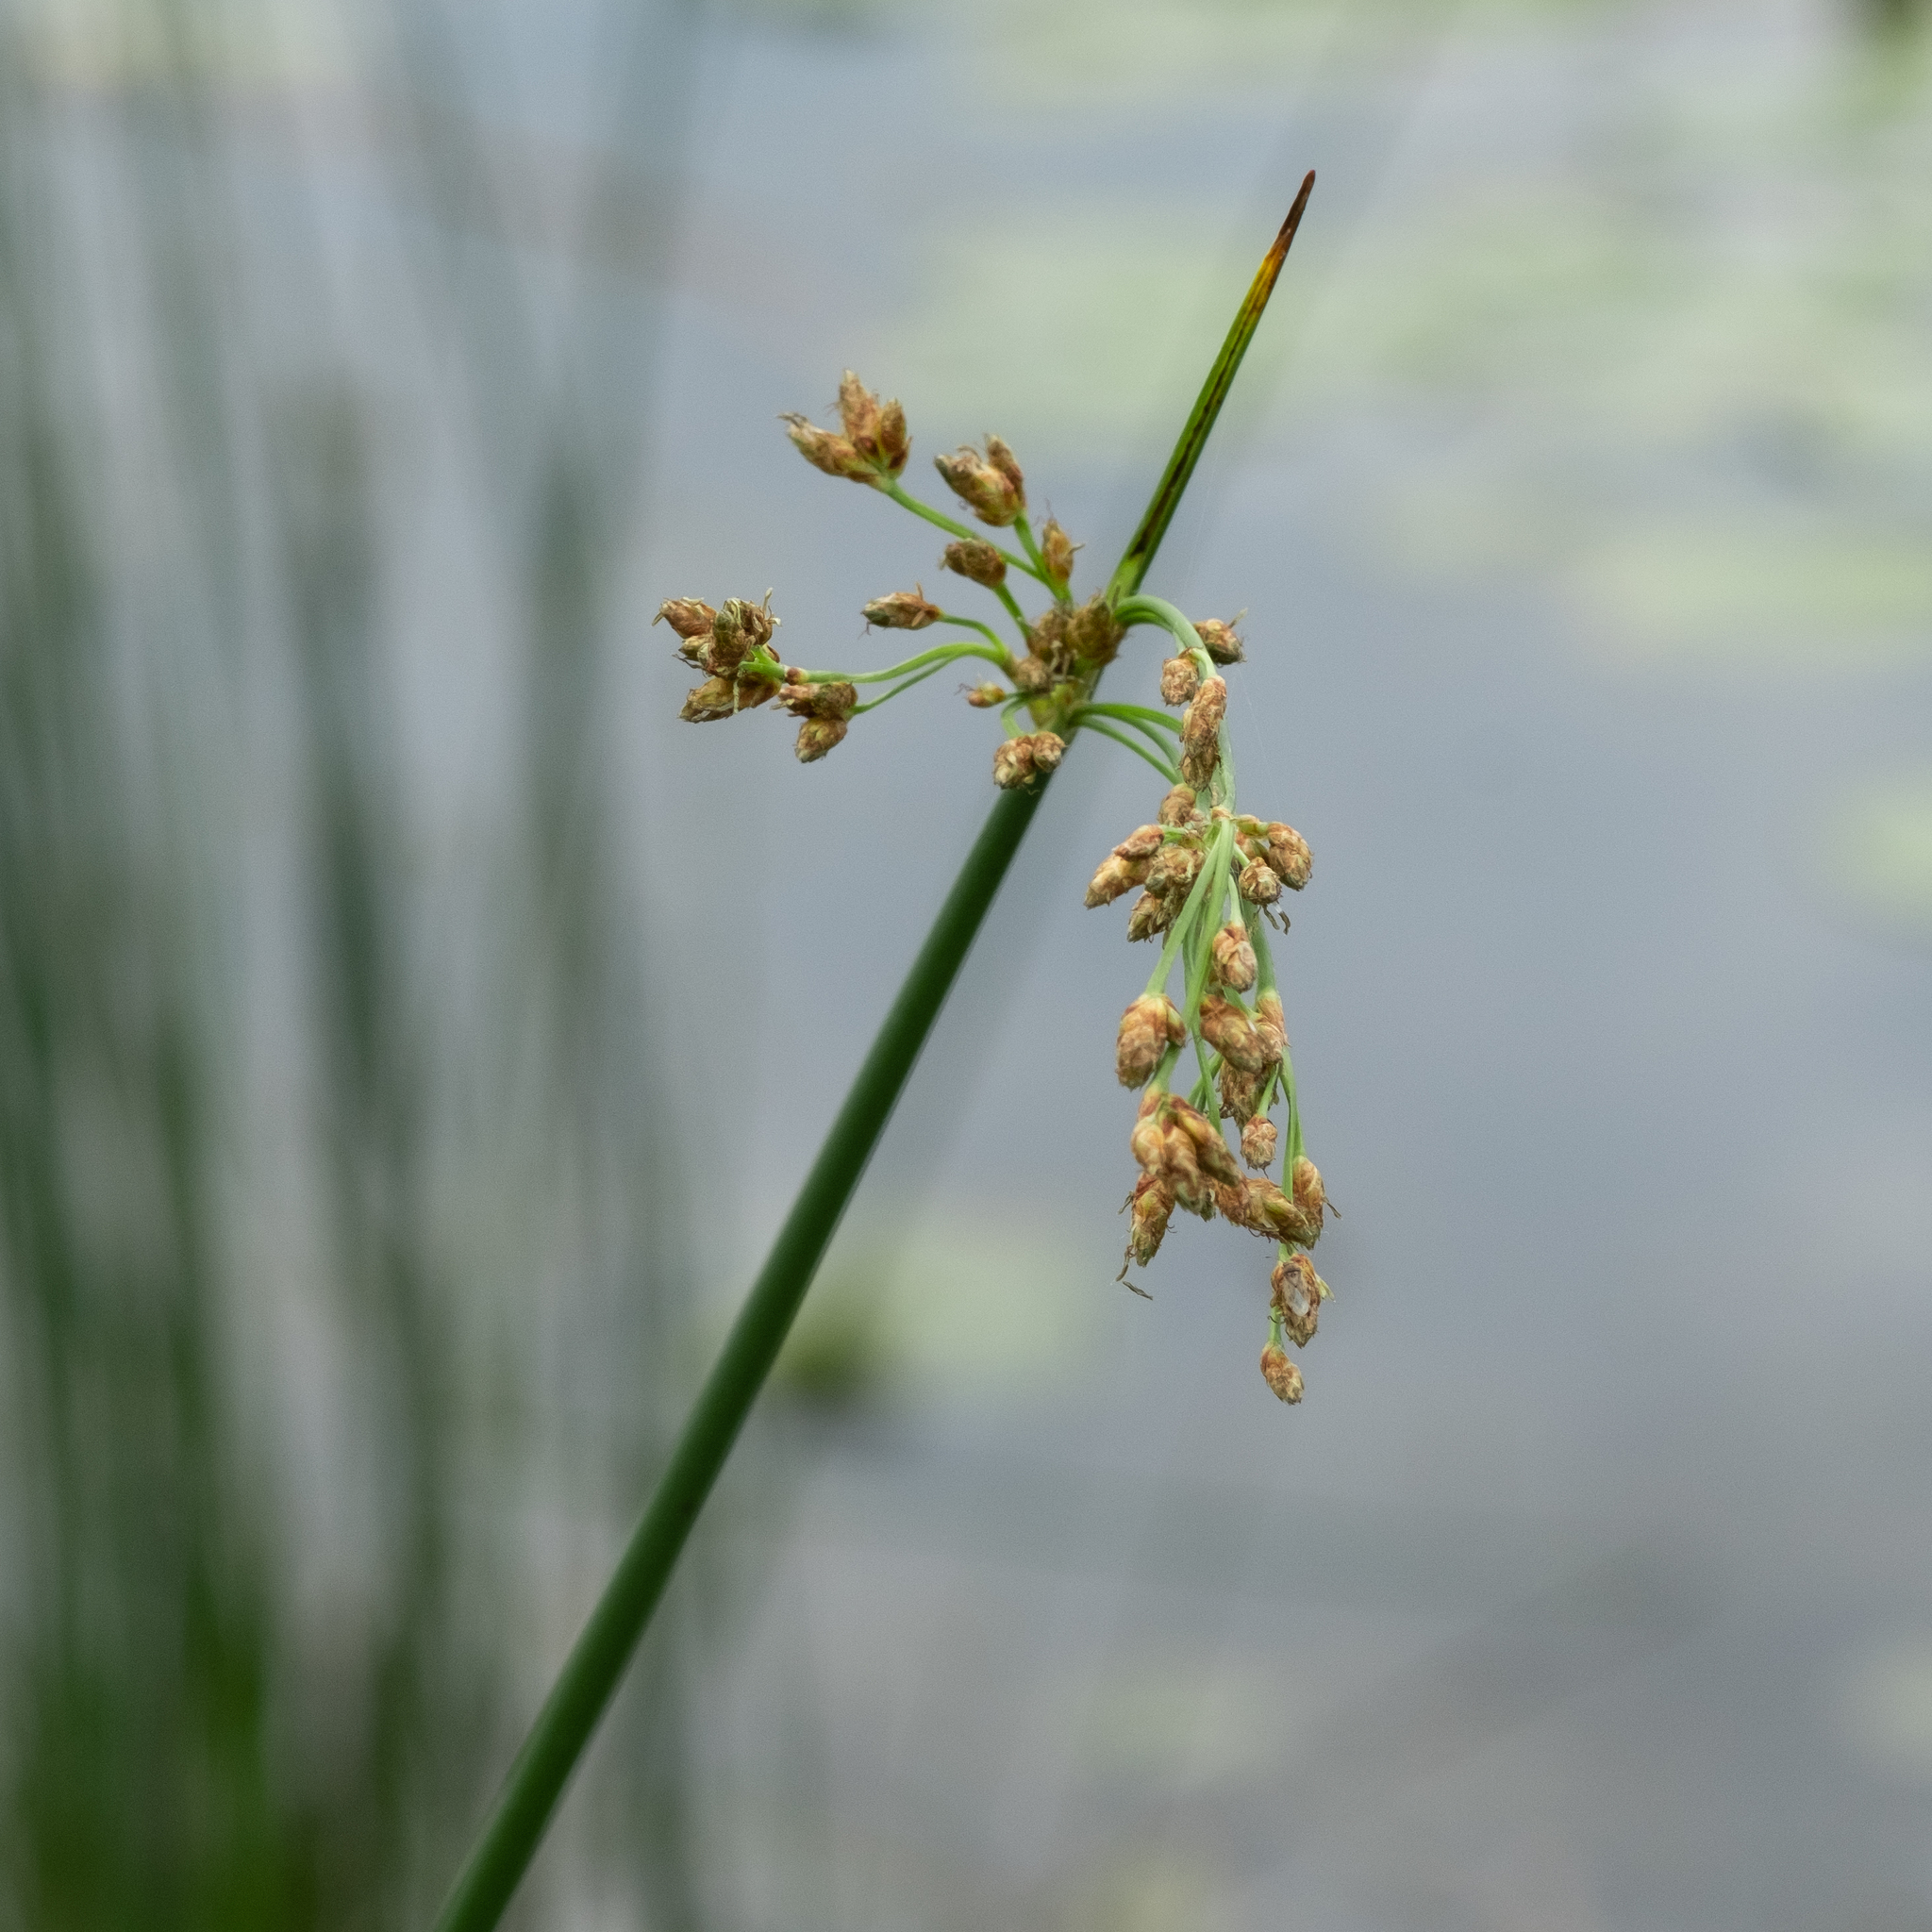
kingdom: Plantae
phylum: Tracheophyta
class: Liliopsida
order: Poales
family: Cyperaceae
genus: Schoenoplectus
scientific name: Schoenoplectus tabernaemontani
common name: Grey club-rush
